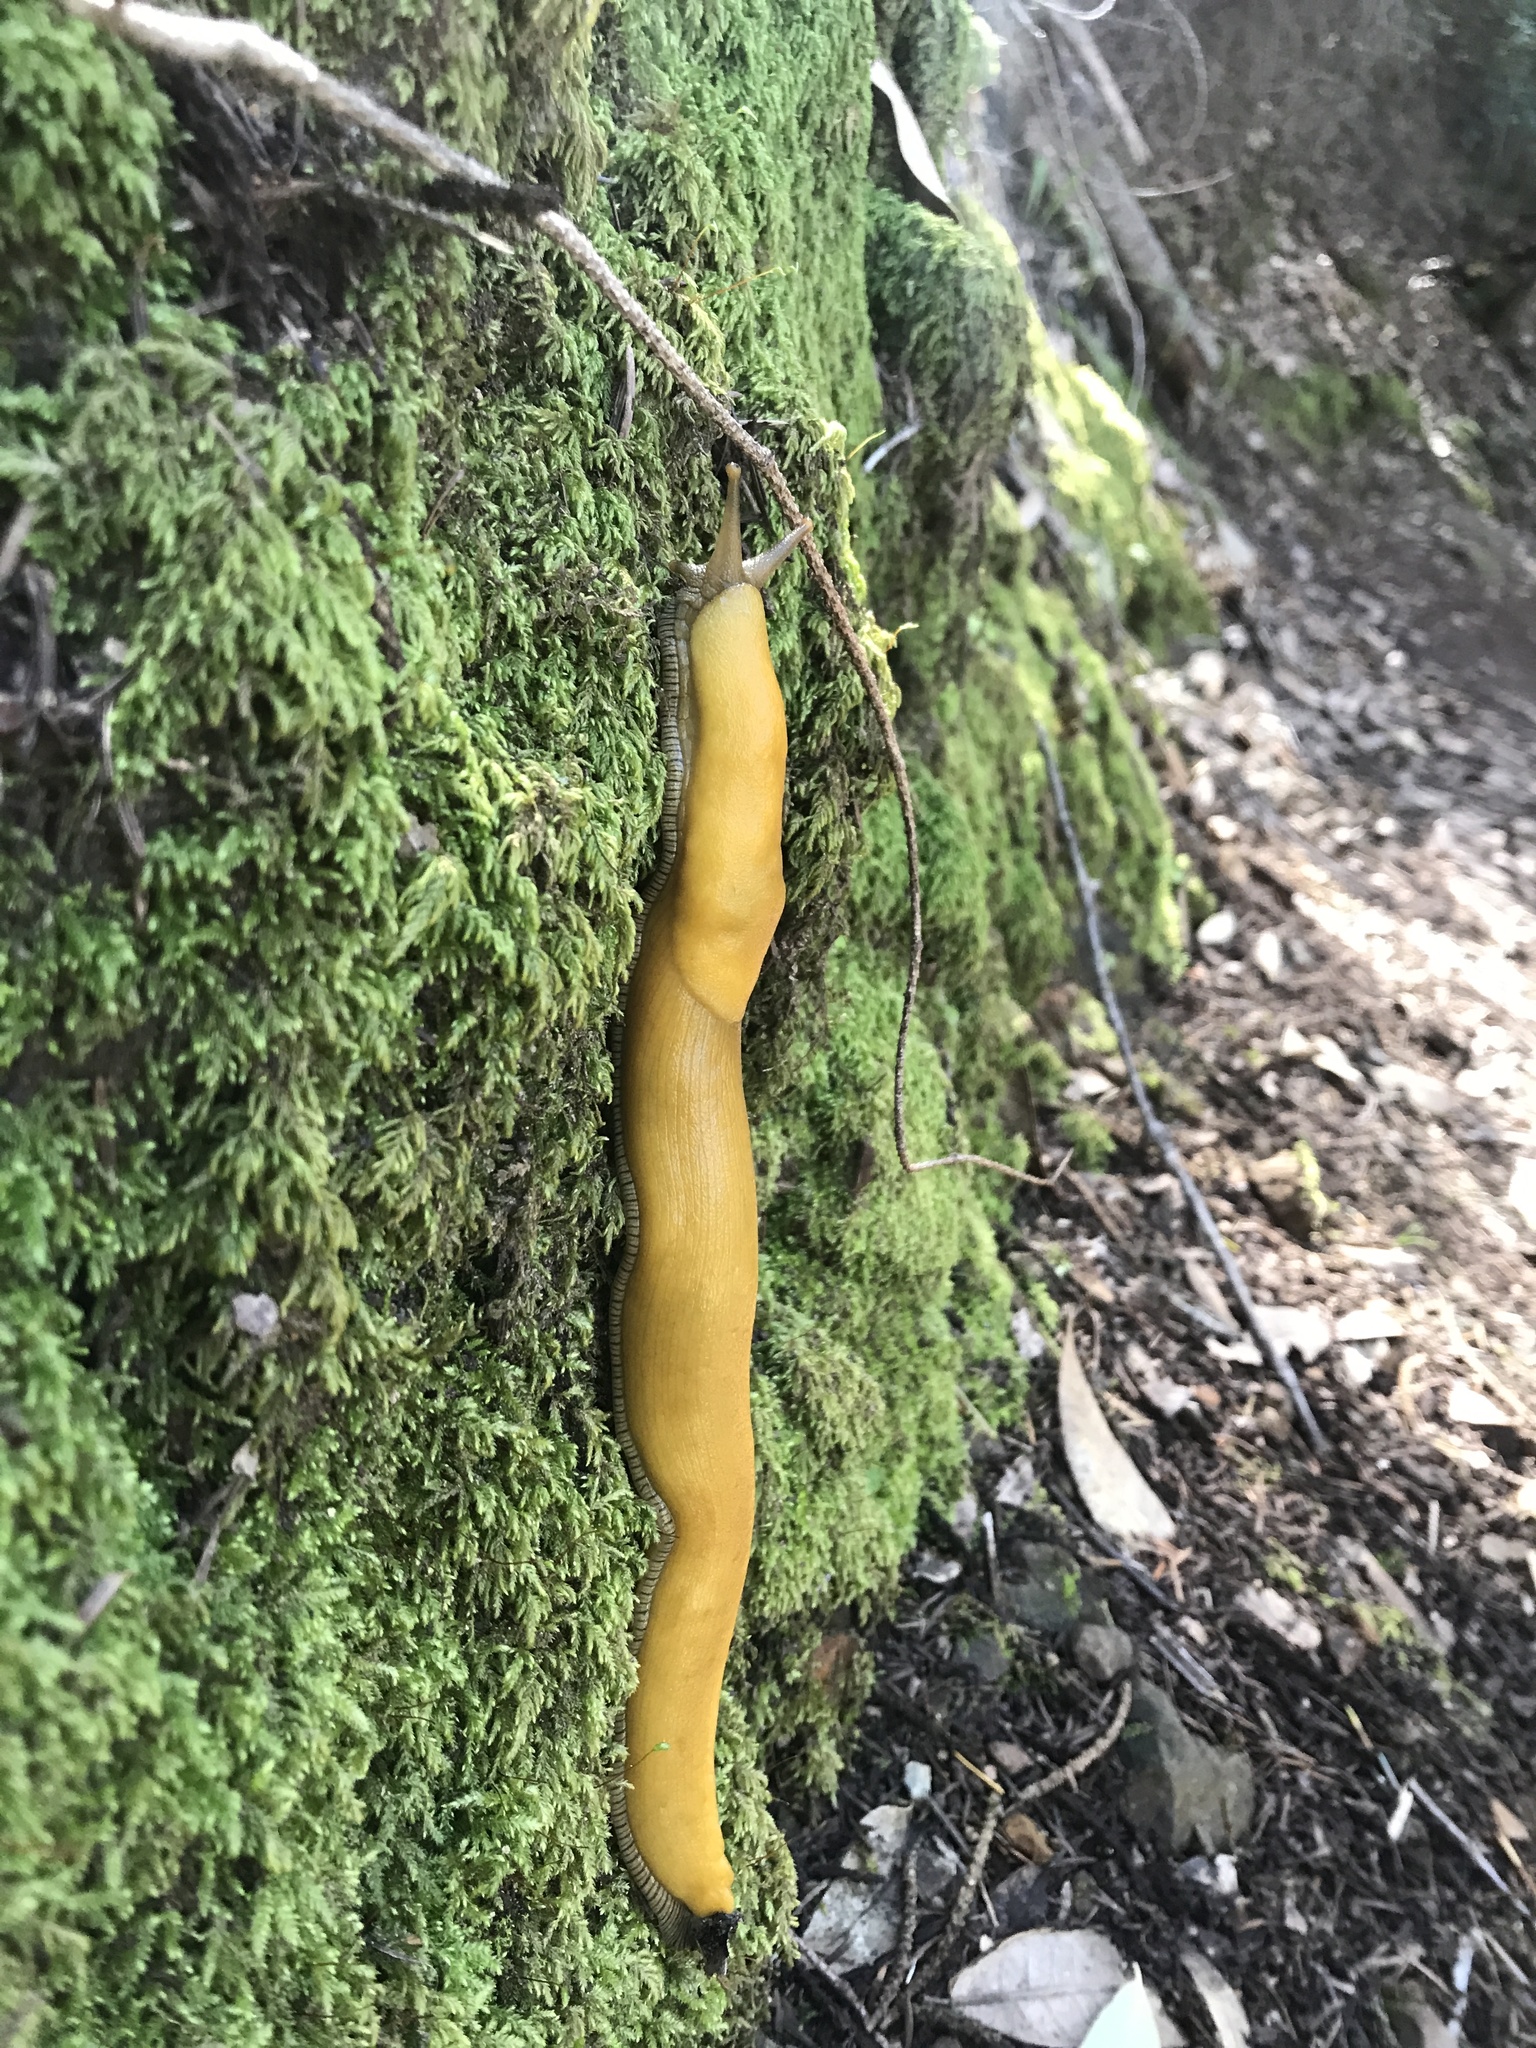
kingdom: Animalia
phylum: Mollusca
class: Gastropoda
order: Stylommatophora
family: Ariolimacidae
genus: Ariolimax
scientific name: Ariolimax stramineus
